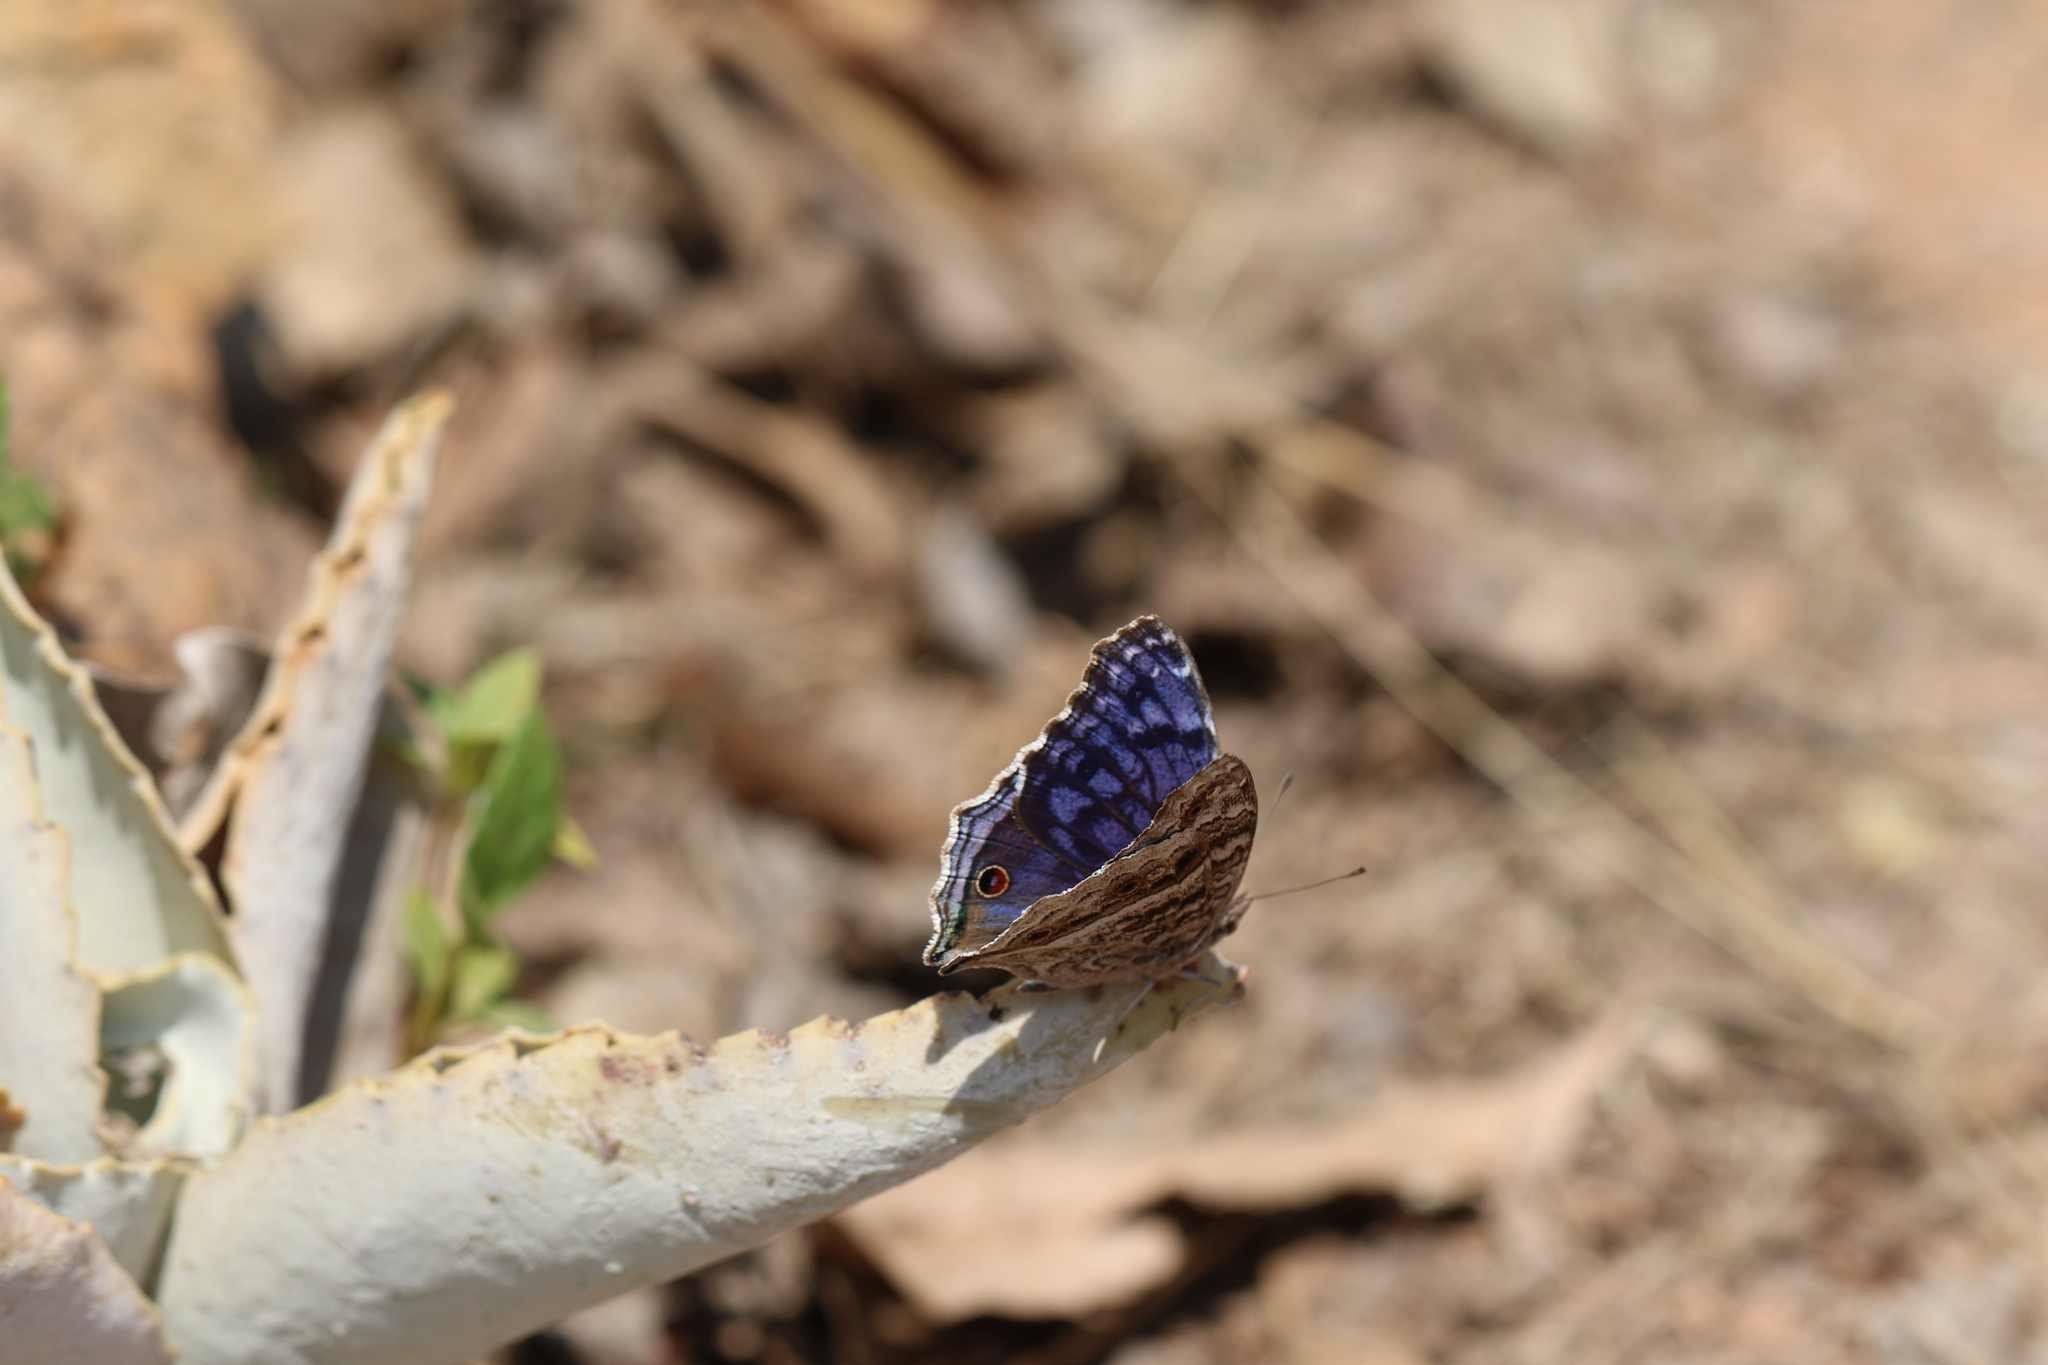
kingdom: Animalia
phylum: Arthropoda
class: Insecta
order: Lepidoptera
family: Nymphalidae
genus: Junonia
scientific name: Junonia rhadama
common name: Royal blue pansy
